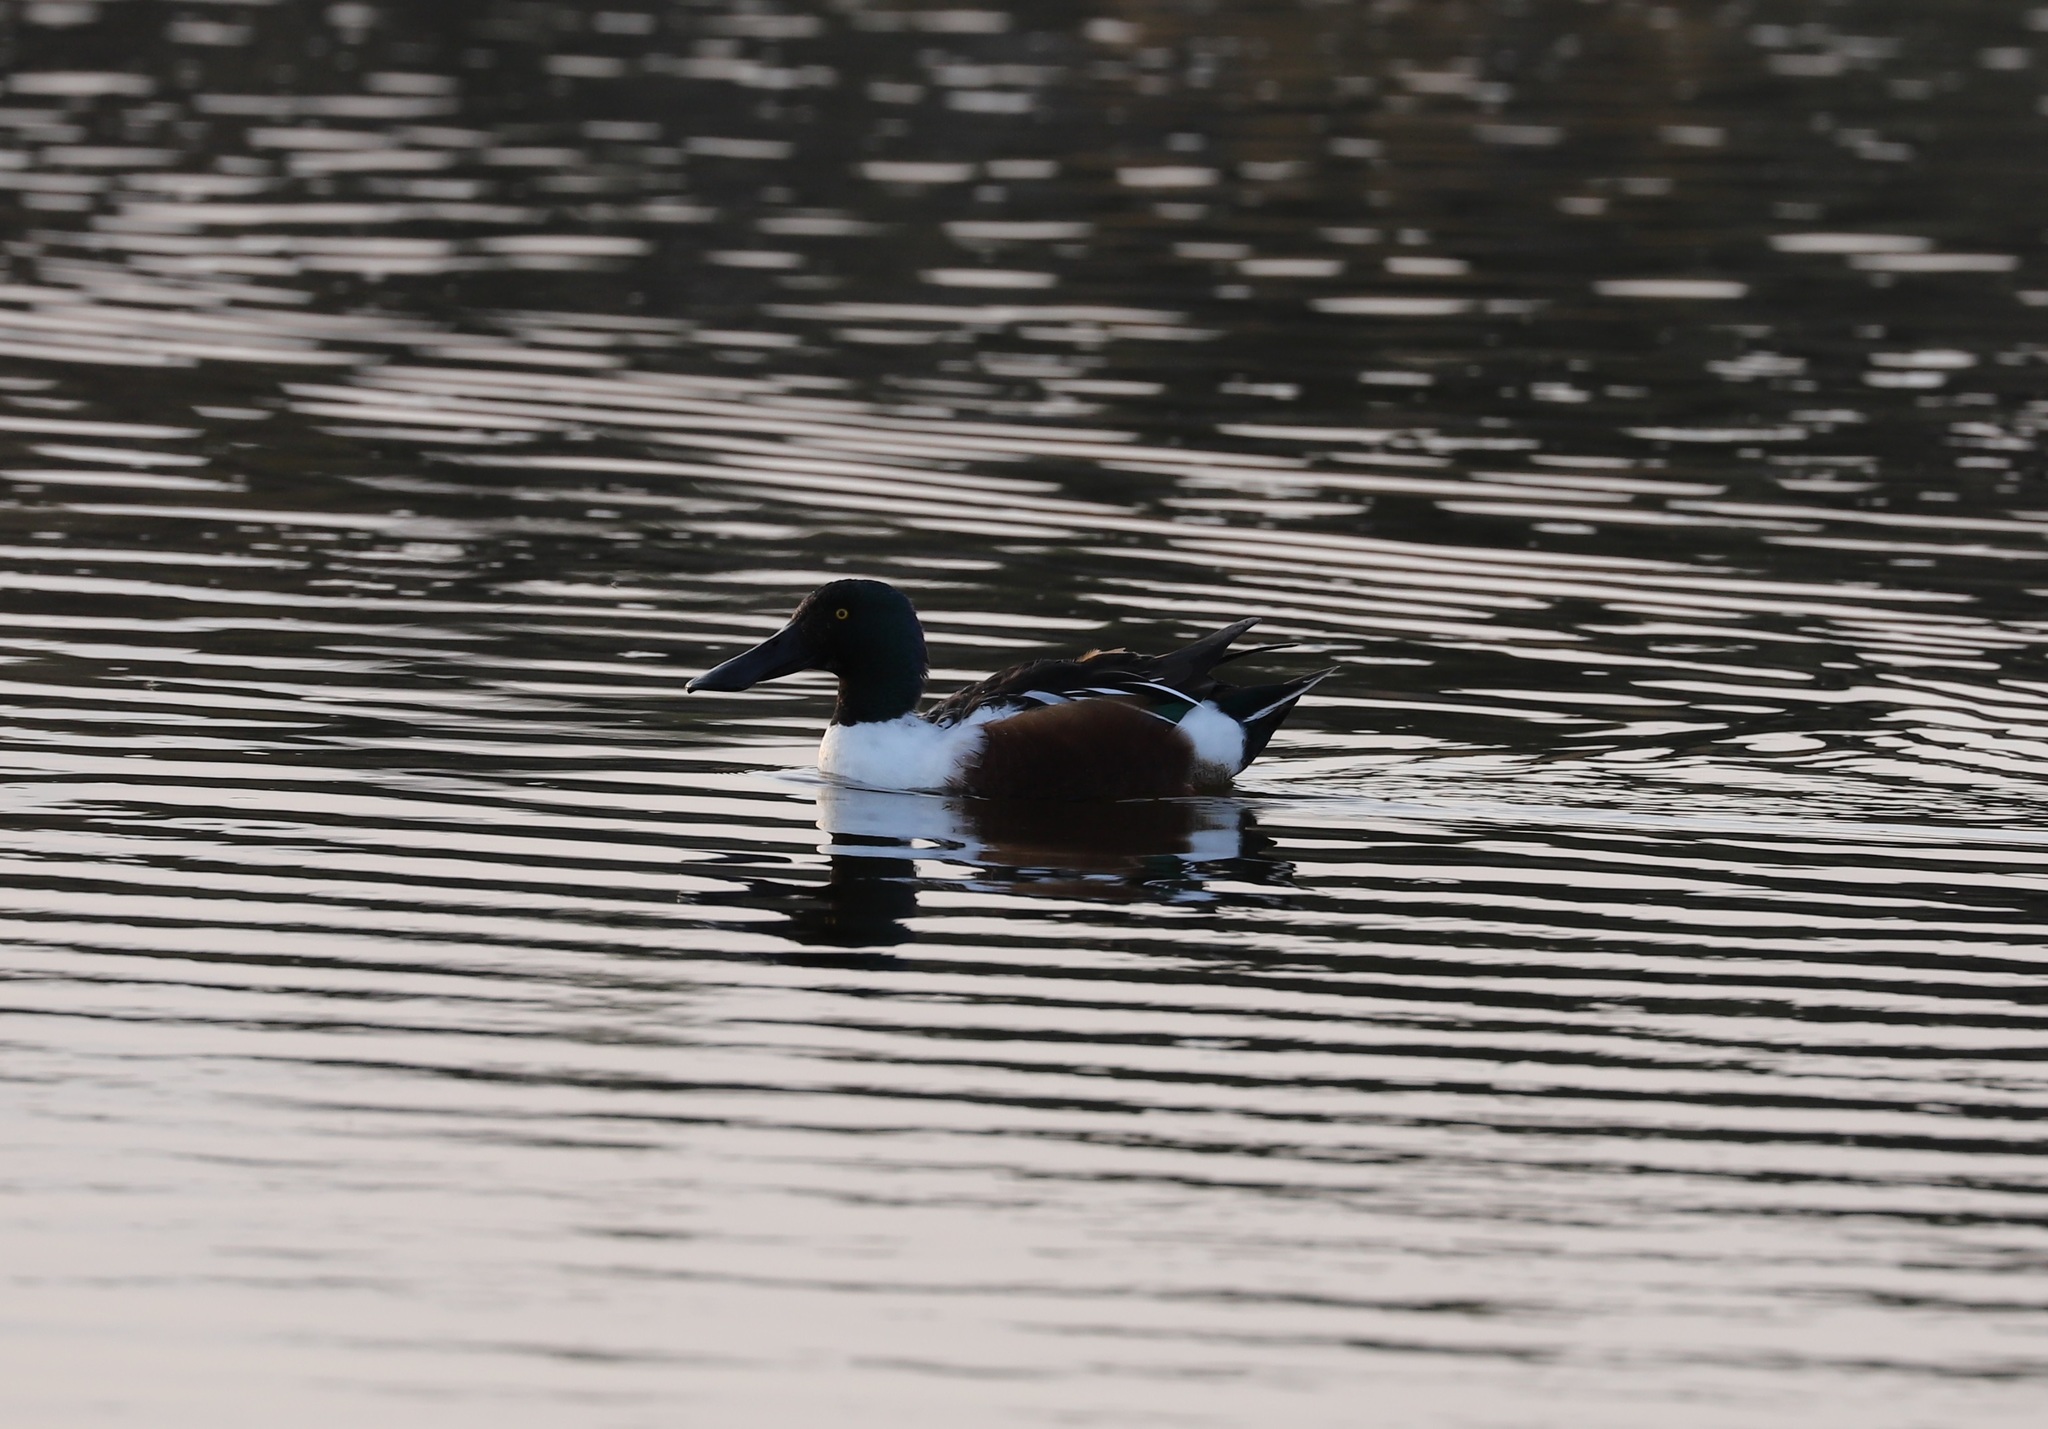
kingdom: Animalia
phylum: Chordata
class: Aves
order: Anseriformes
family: Anatidae
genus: Spatula
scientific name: Spatula clypeata
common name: Northern shoveler
